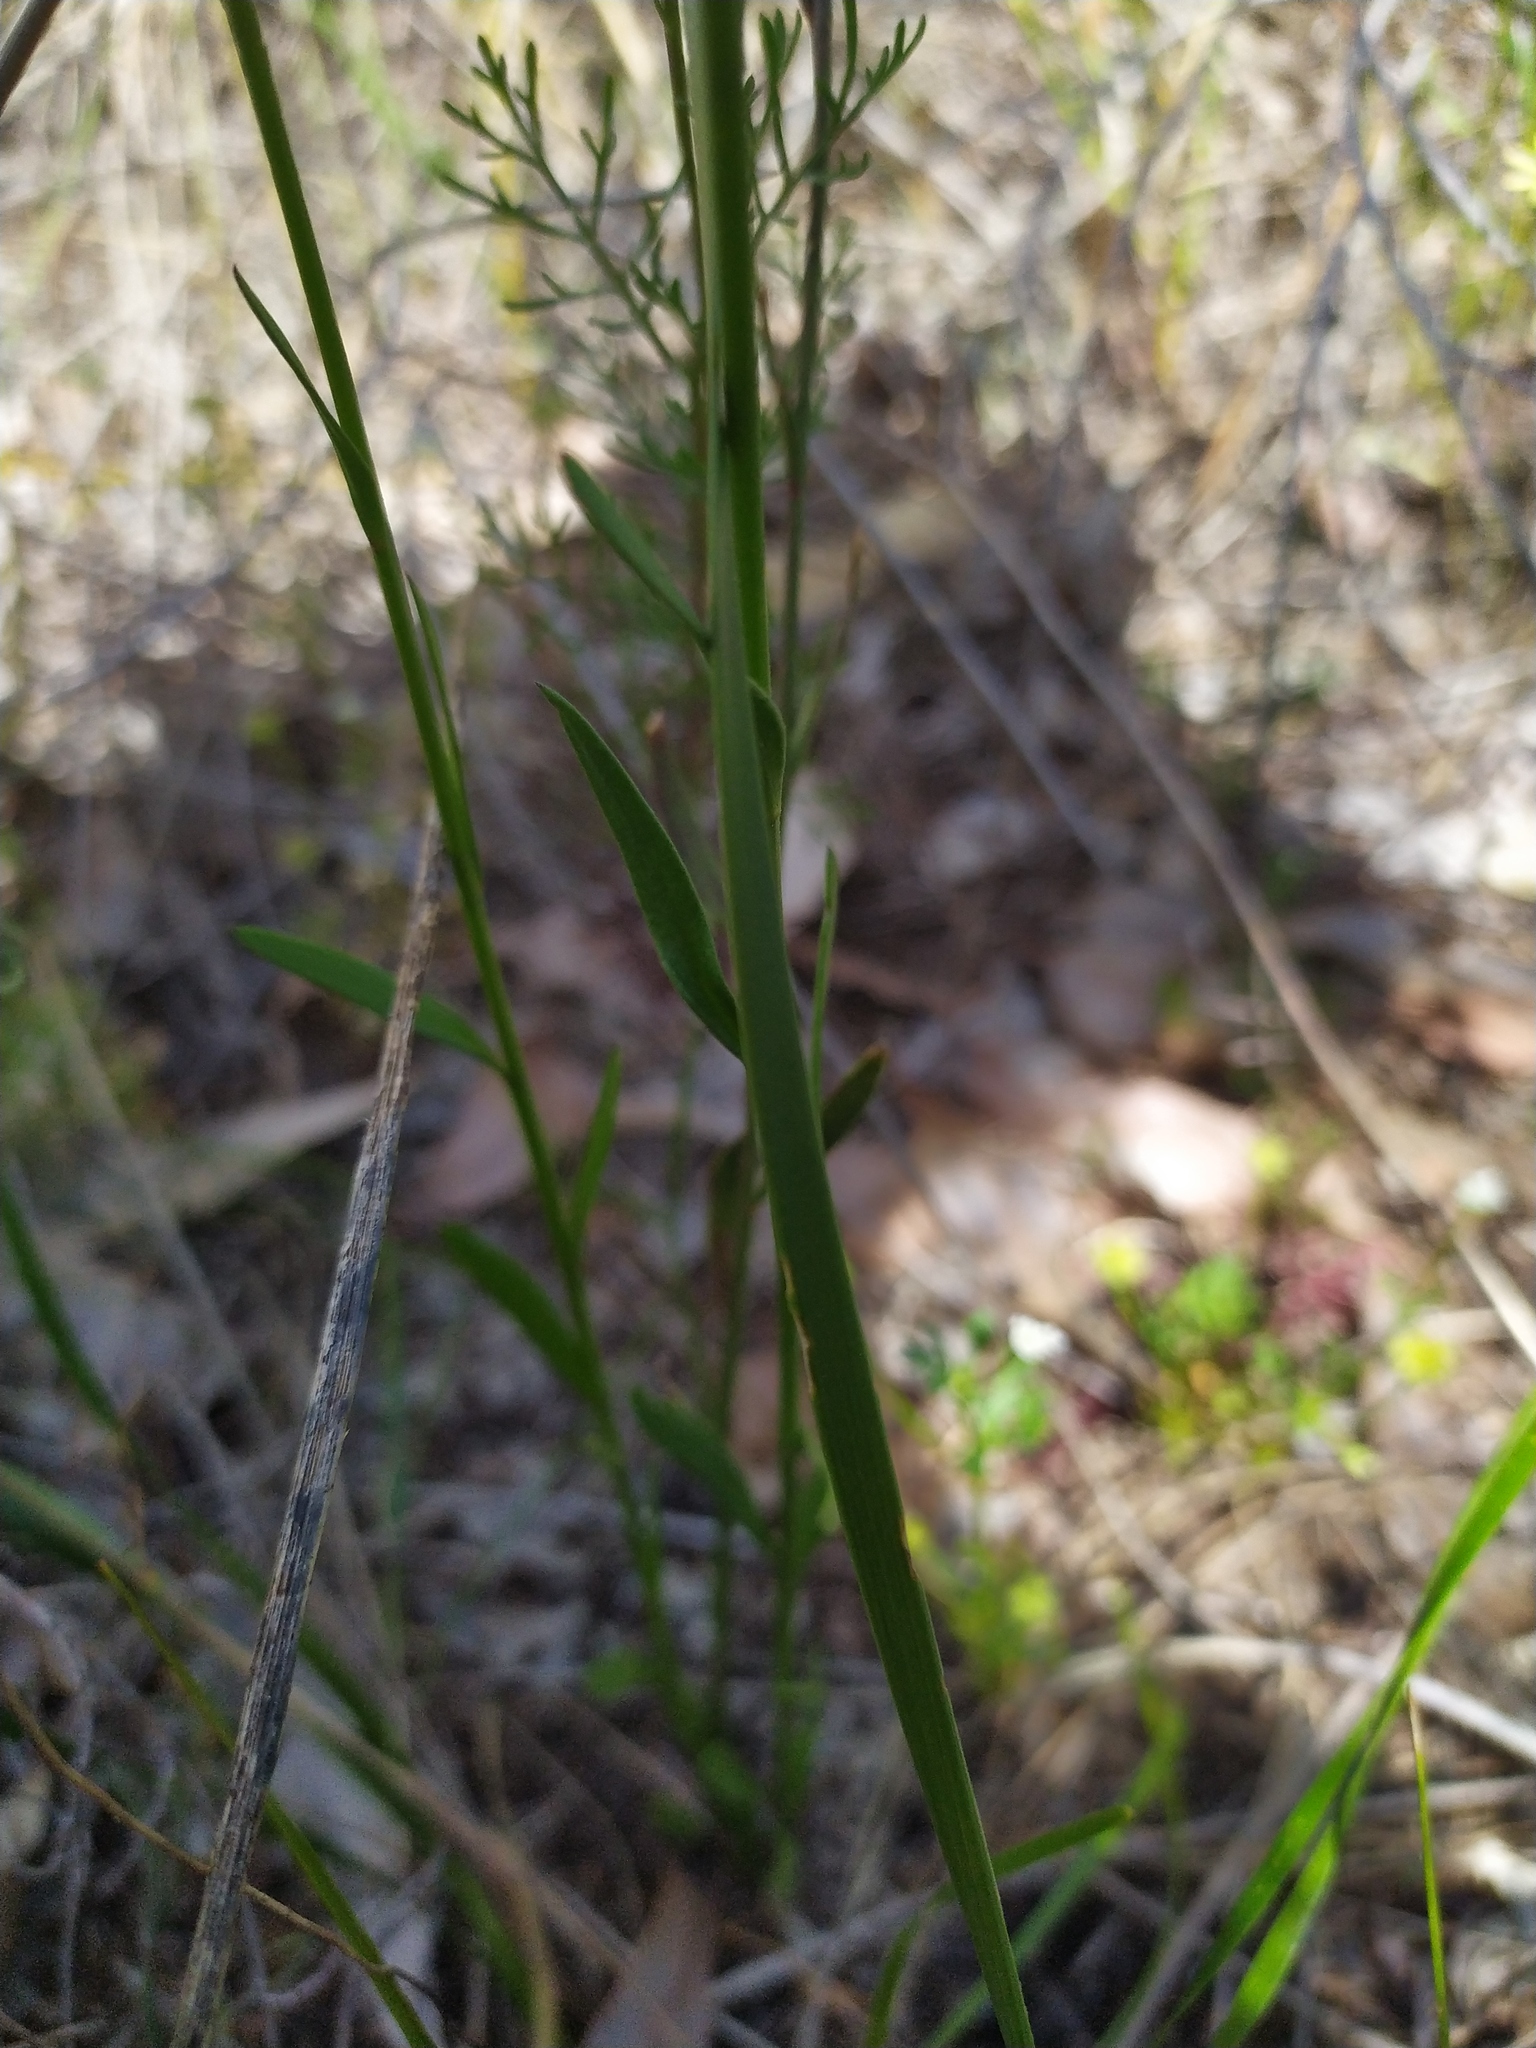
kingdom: Plantae
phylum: Tracheophyta
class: Magnoliopsida
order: Fabales
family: Polygalaceae
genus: Comesperma
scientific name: Comesperma calymega
